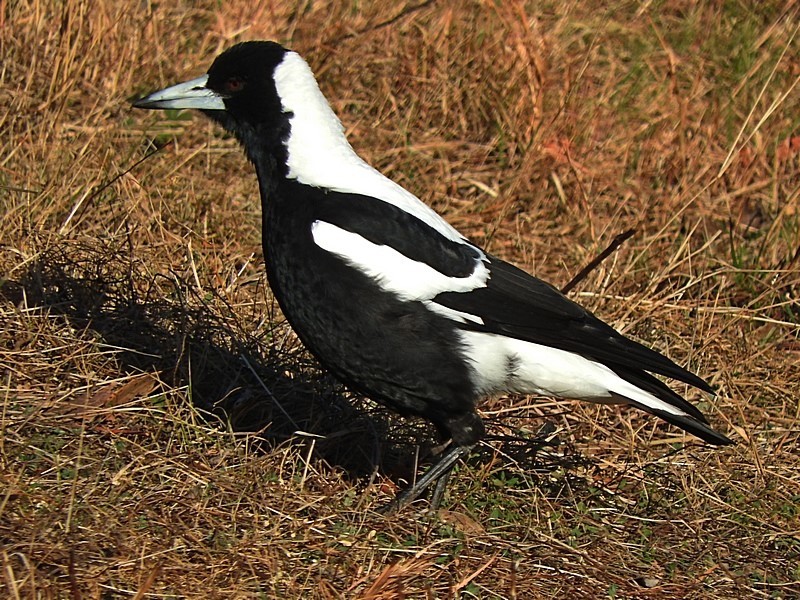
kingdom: Animalia
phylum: Chordata
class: Aves
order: Passeriformes
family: Cracticidae
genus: Gymnorhina
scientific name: Gymnorhina tibicen
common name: Australian magpie
